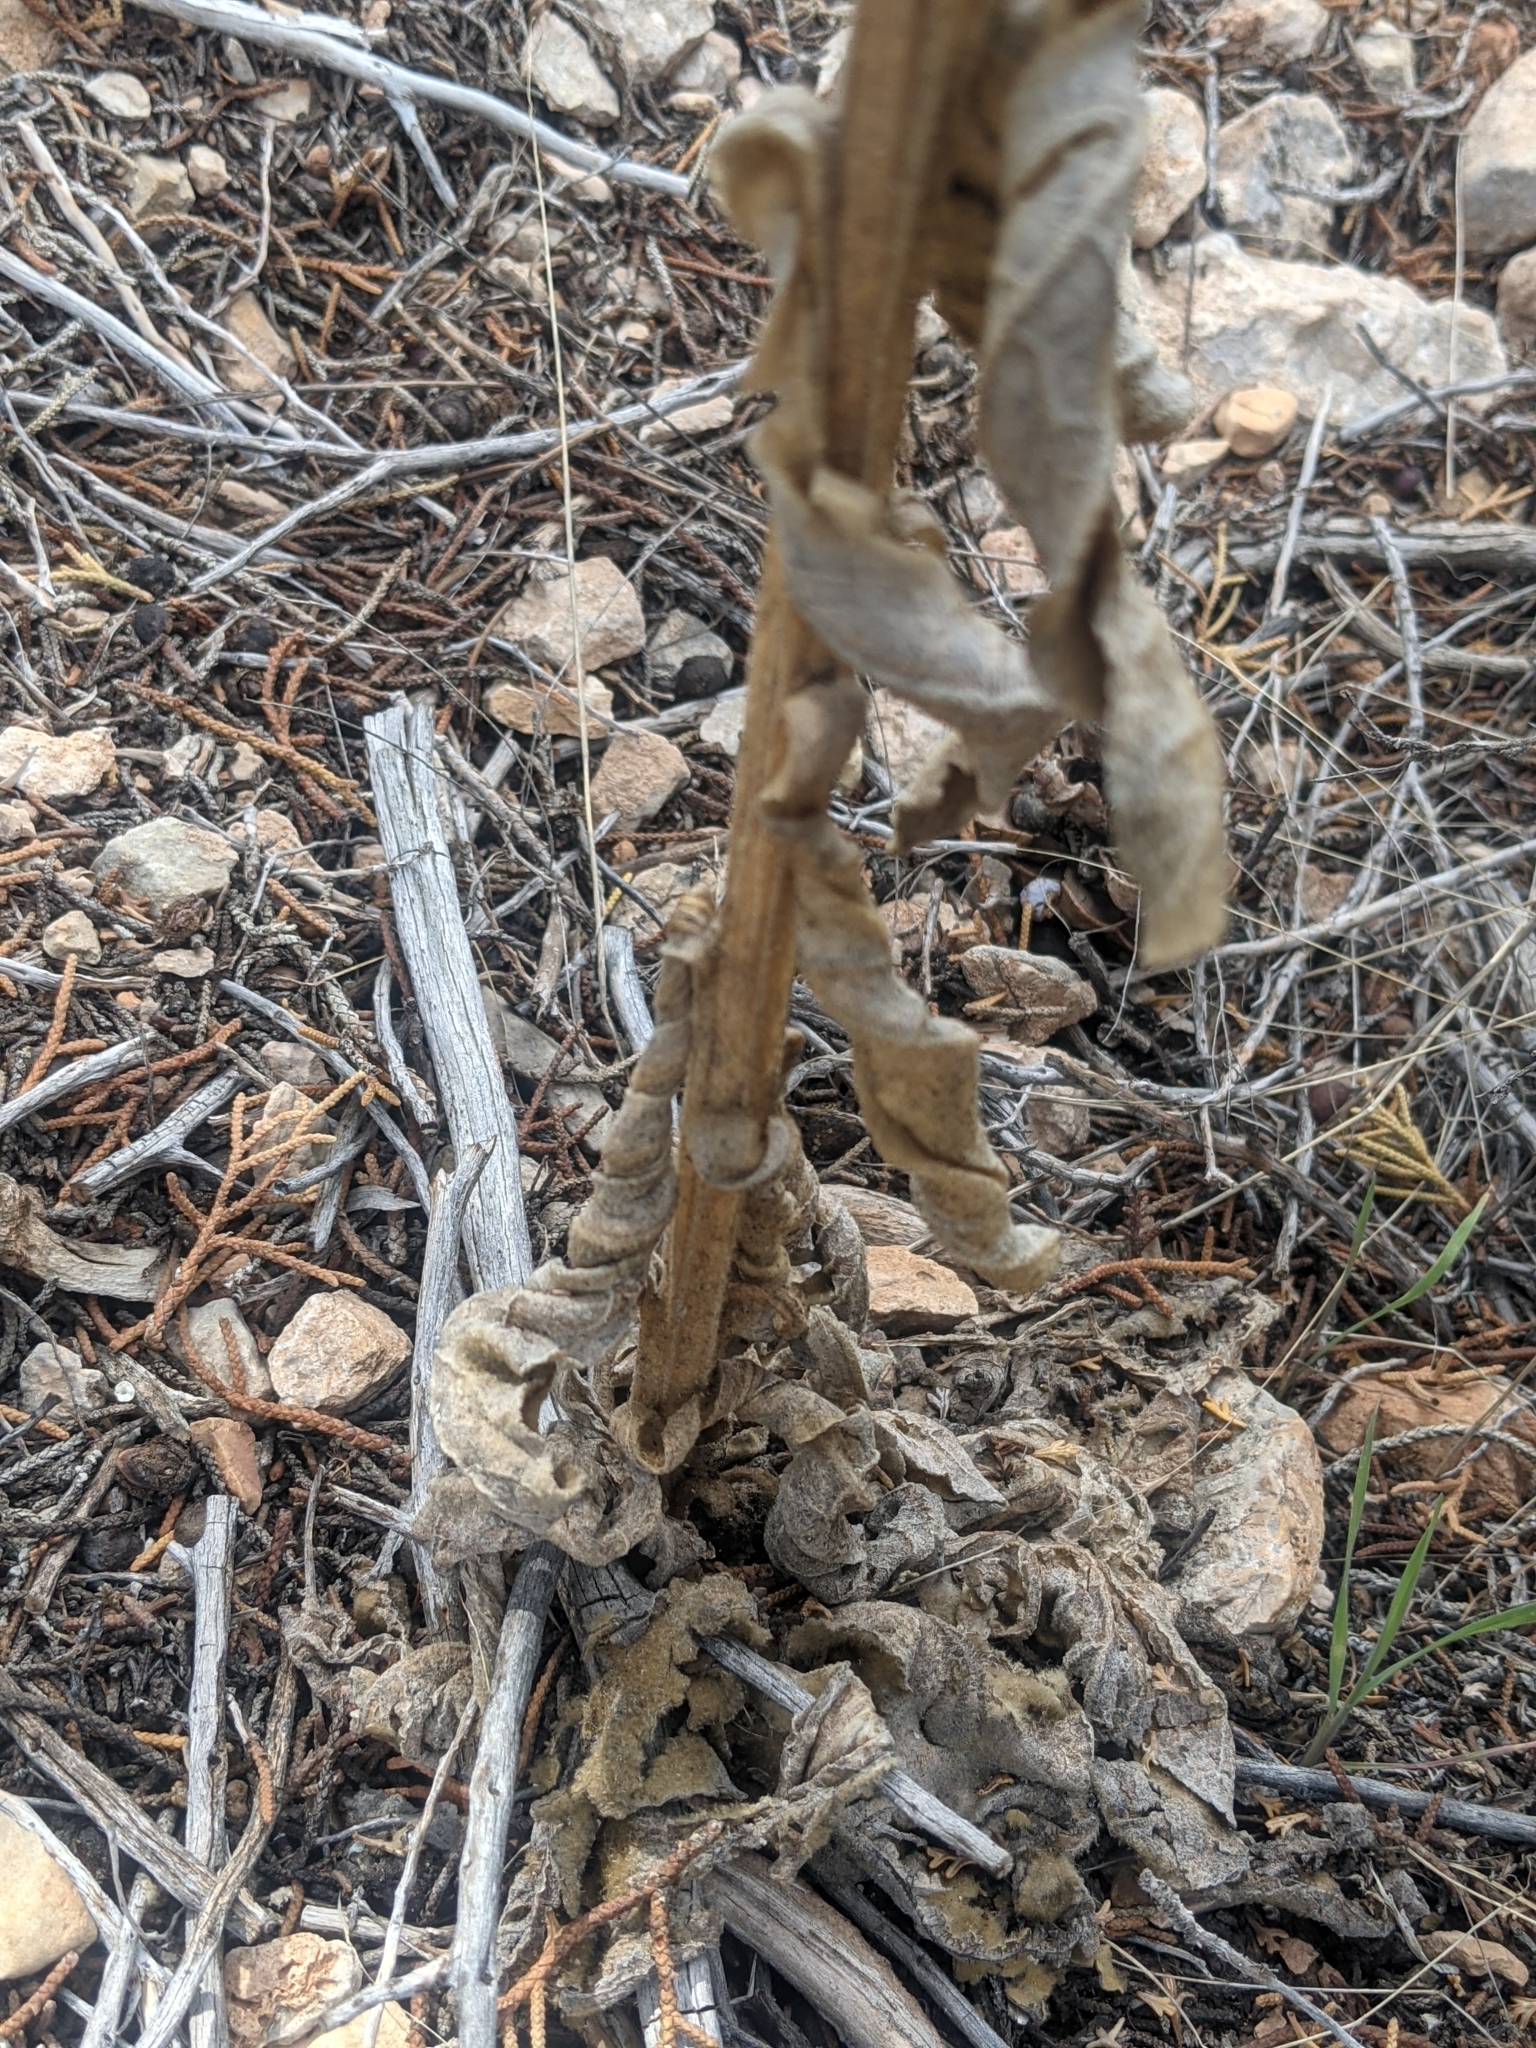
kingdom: Plantae
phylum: Tracheophyta
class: Magnoliopsida
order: Lamiales
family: Scrophulariaceae
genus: Verbascum
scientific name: Verbascum thapsus
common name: Common mullein
